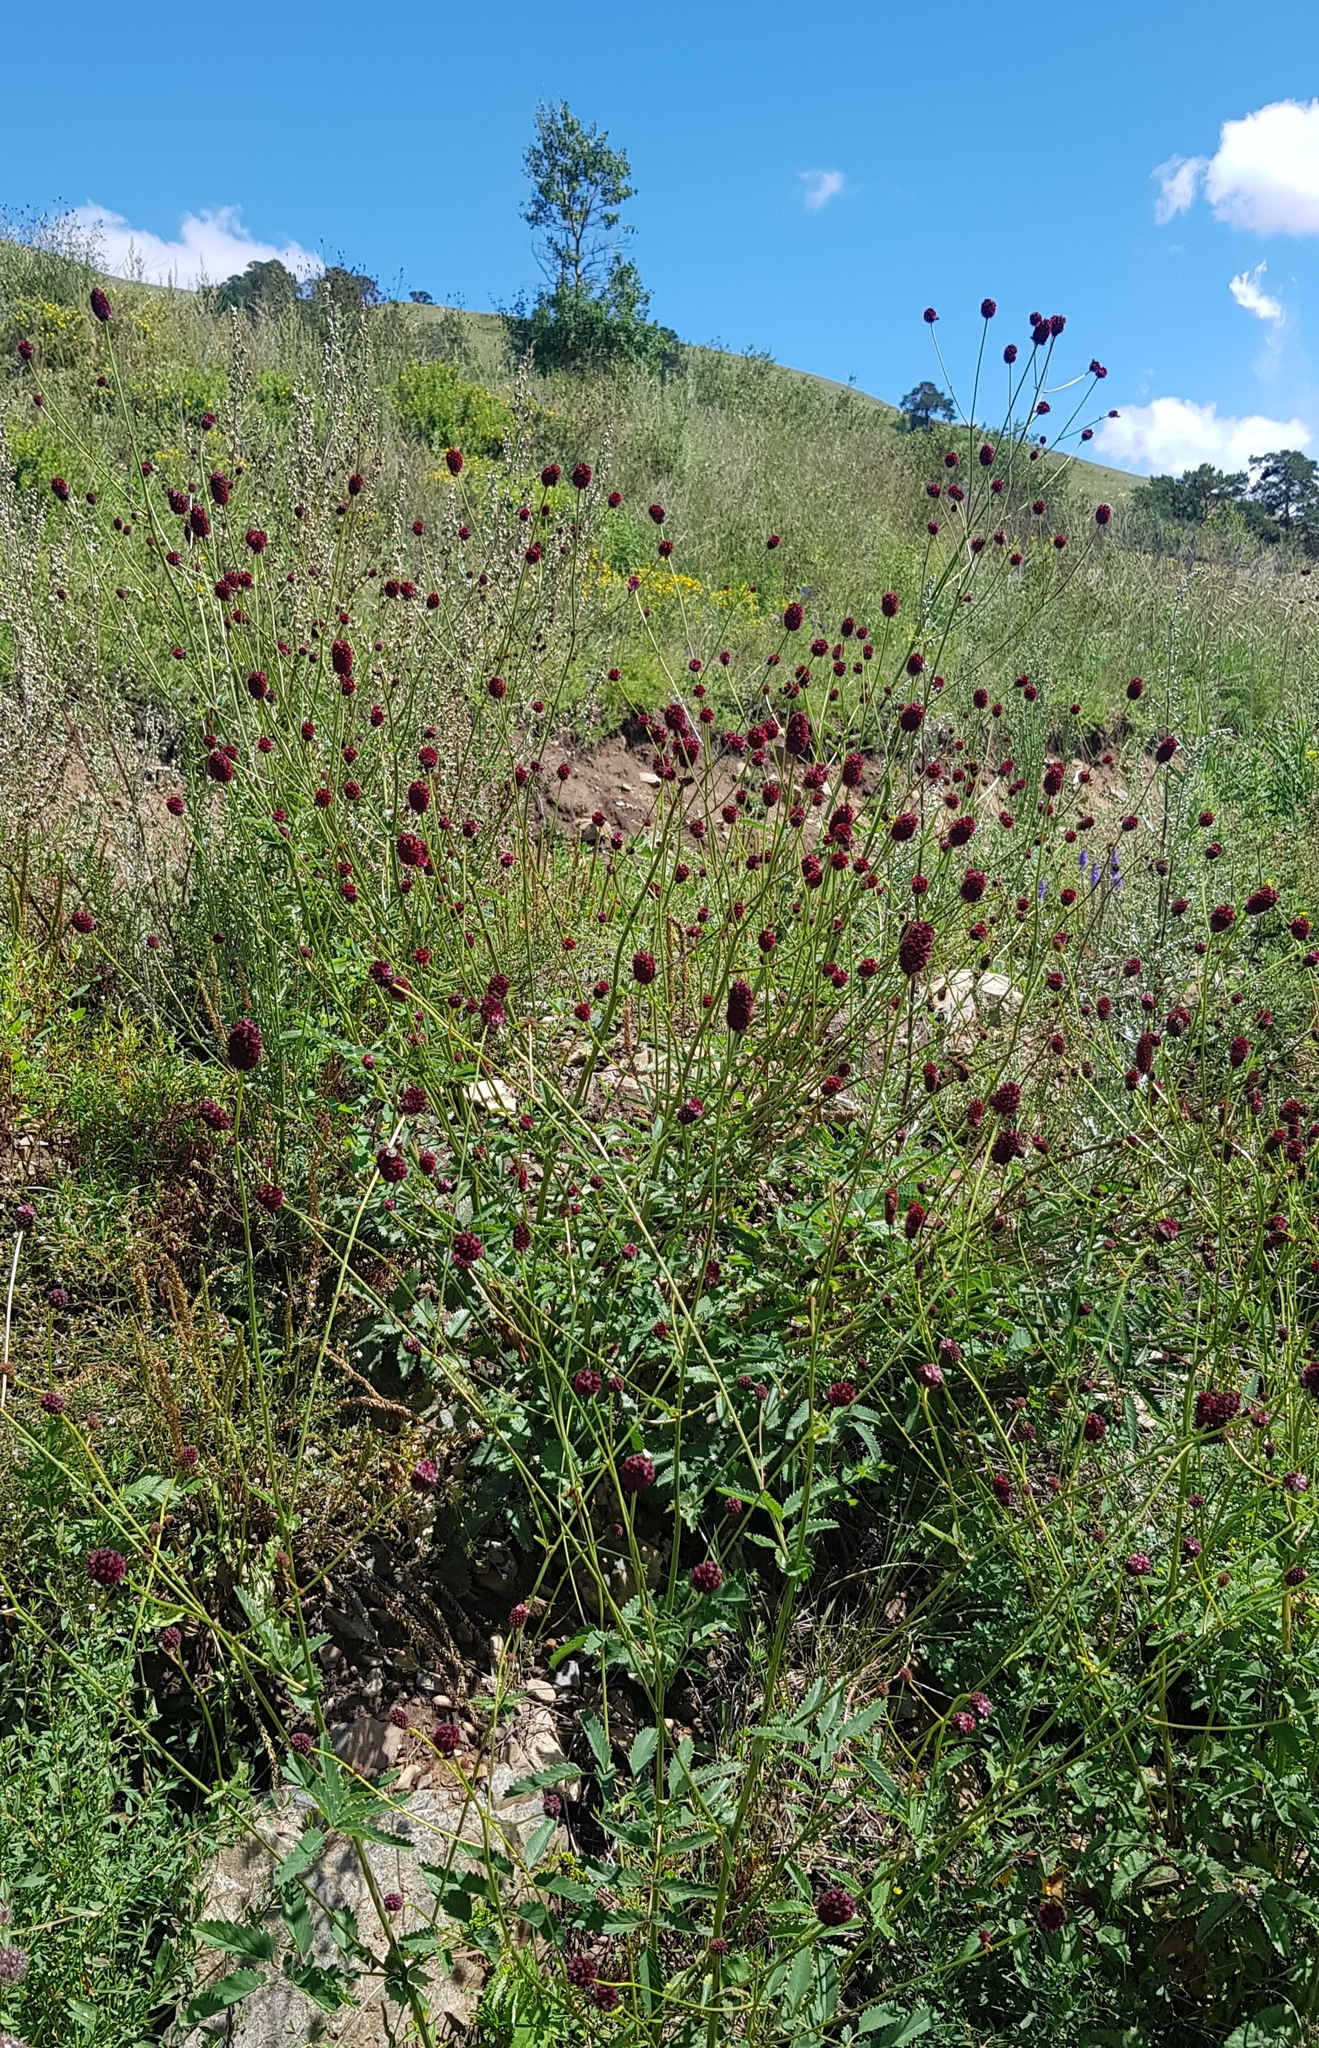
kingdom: Plantae
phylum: Tracheophyta
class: Magnoliopsida
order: Rosales
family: Rosaceae
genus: Sanguisorba
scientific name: Sanguisorba officinalis
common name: Great burnet
